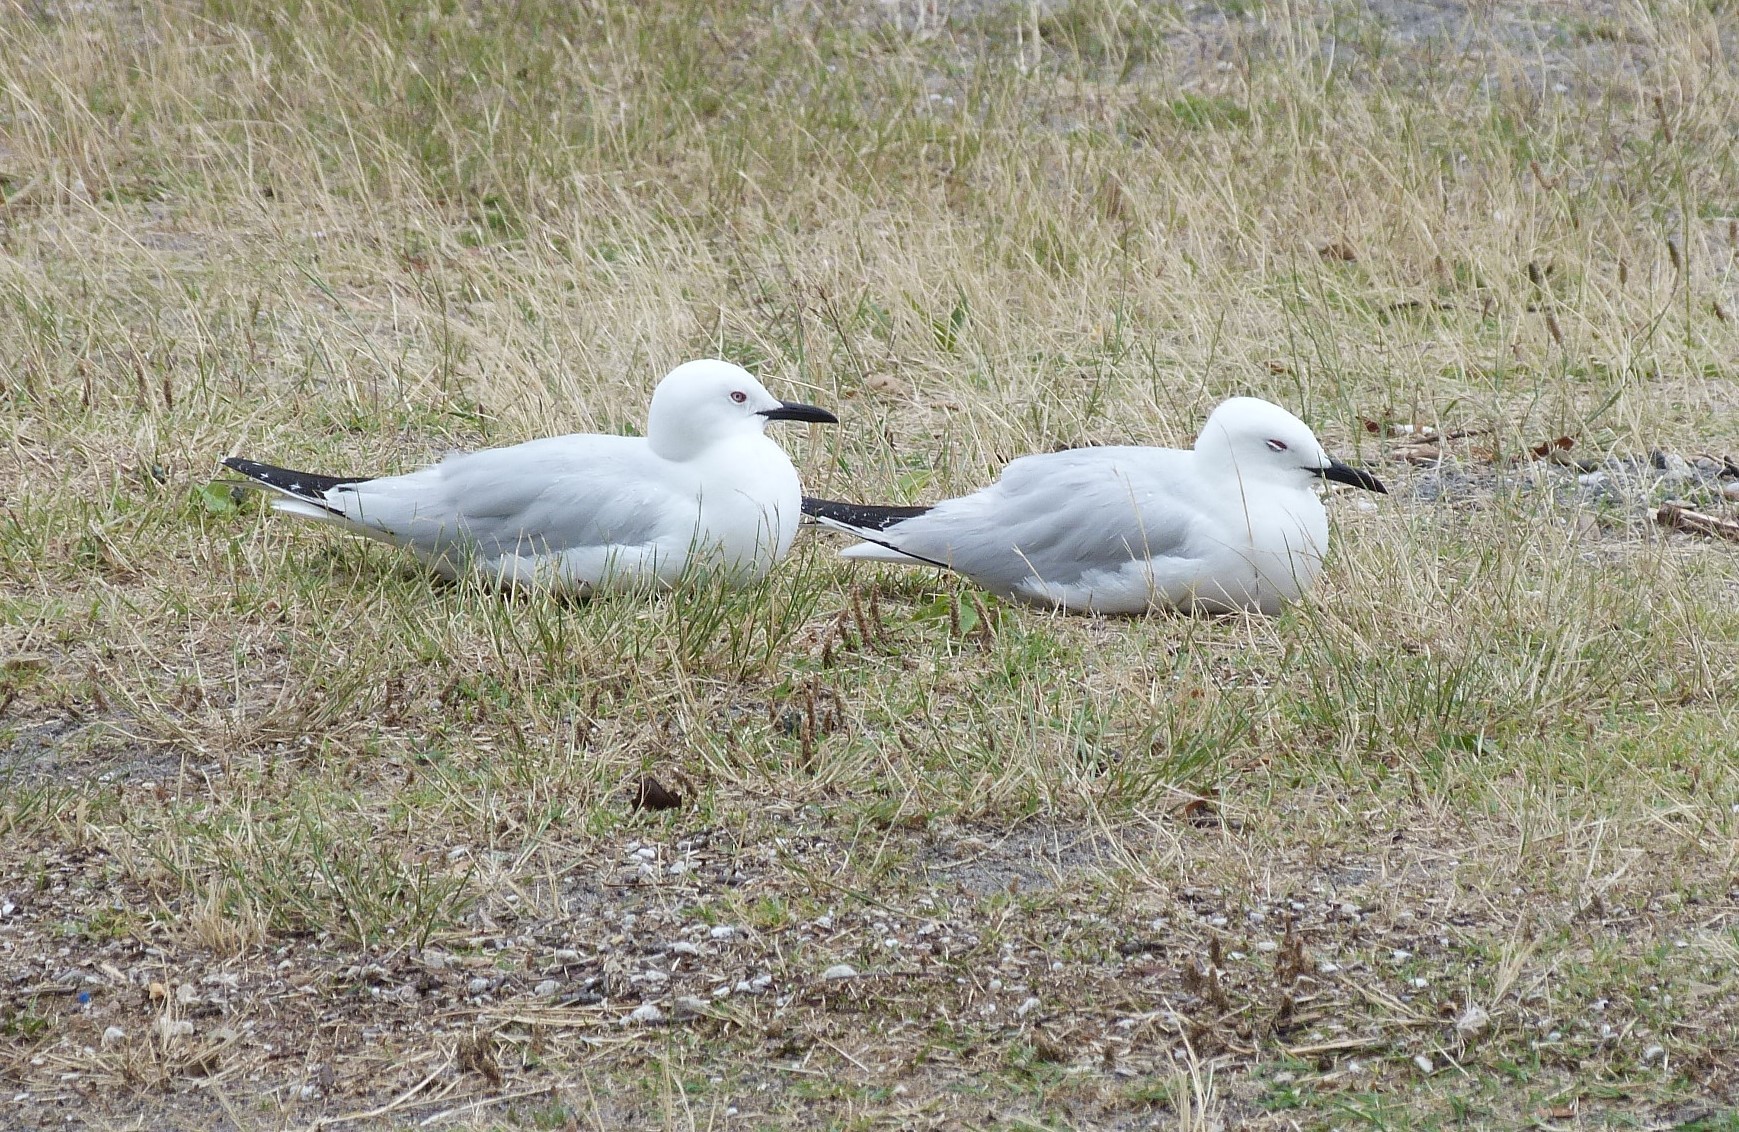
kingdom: Animalia
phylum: Chordata
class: Aves
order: Charadriiformes
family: Laridae
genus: Chroicocephalus
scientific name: Chroicocephalus bulleri
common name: Black-billed gull
